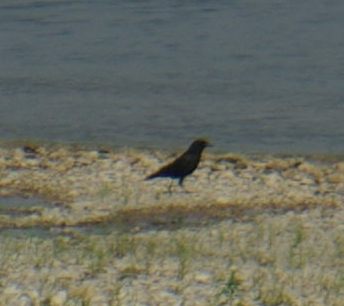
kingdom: Animalia
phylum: Chordata
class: Aves
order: Passeriformes
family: Corvidae
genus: Corvus
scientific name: Corvus brachyrhynchos
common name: American crow
